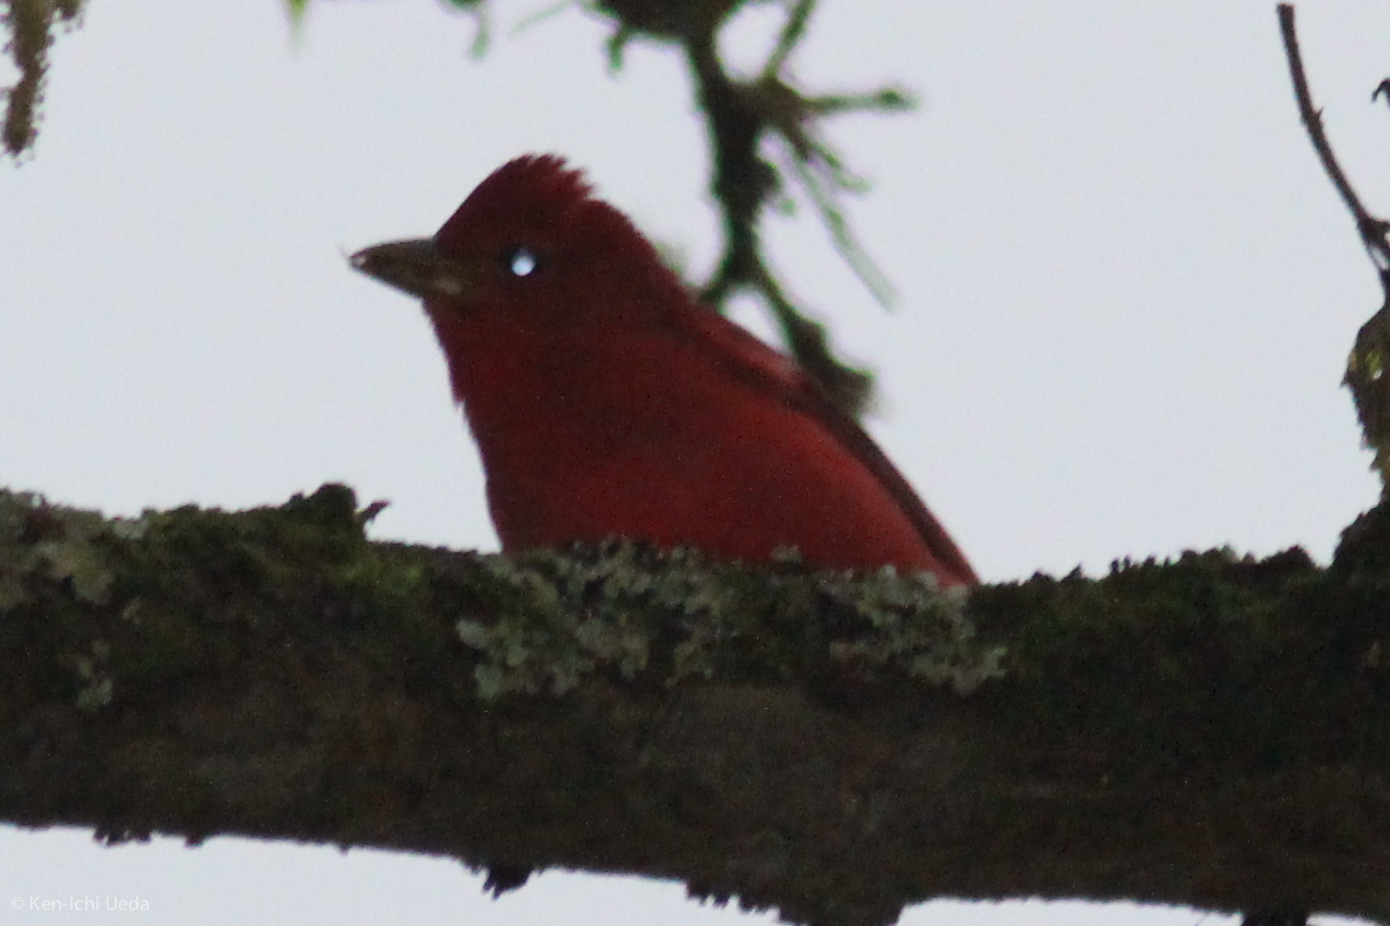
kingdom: Animalia
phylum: Chordata
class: Aves
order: Passeriformes
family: Cardinalidae
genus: Piranga
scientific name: Piranga rubra
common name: Summer tanager
